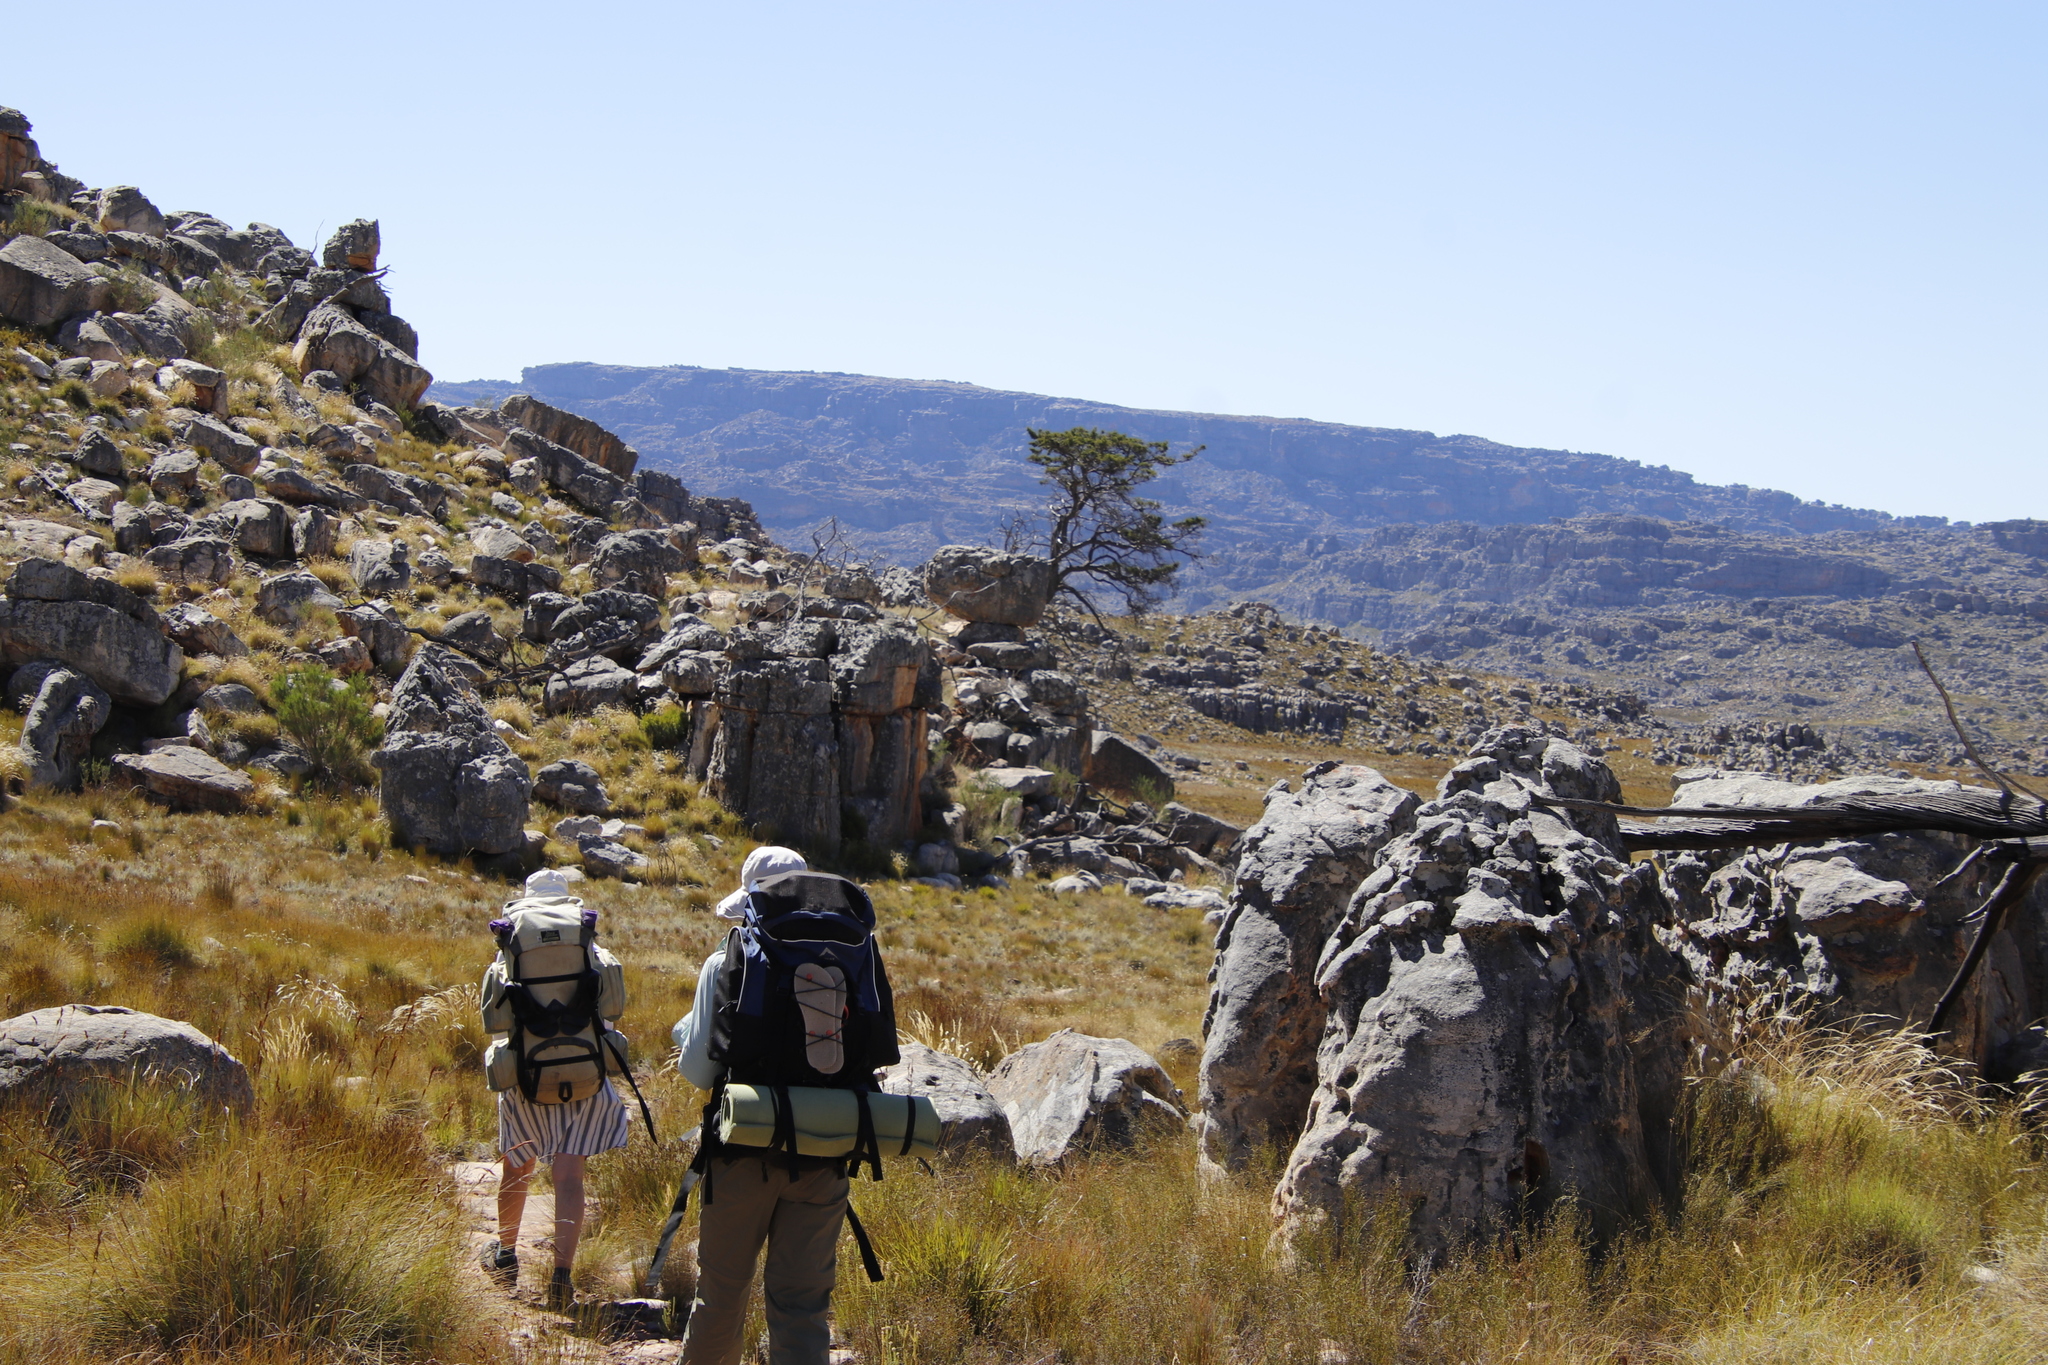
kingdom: Plantae
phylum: Tracheophyta
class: Pinopsida
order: Pinales
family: Cupressaceae
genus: Widdringtonia
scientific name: Widdringtonia nodiflora
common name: Cape cypress
